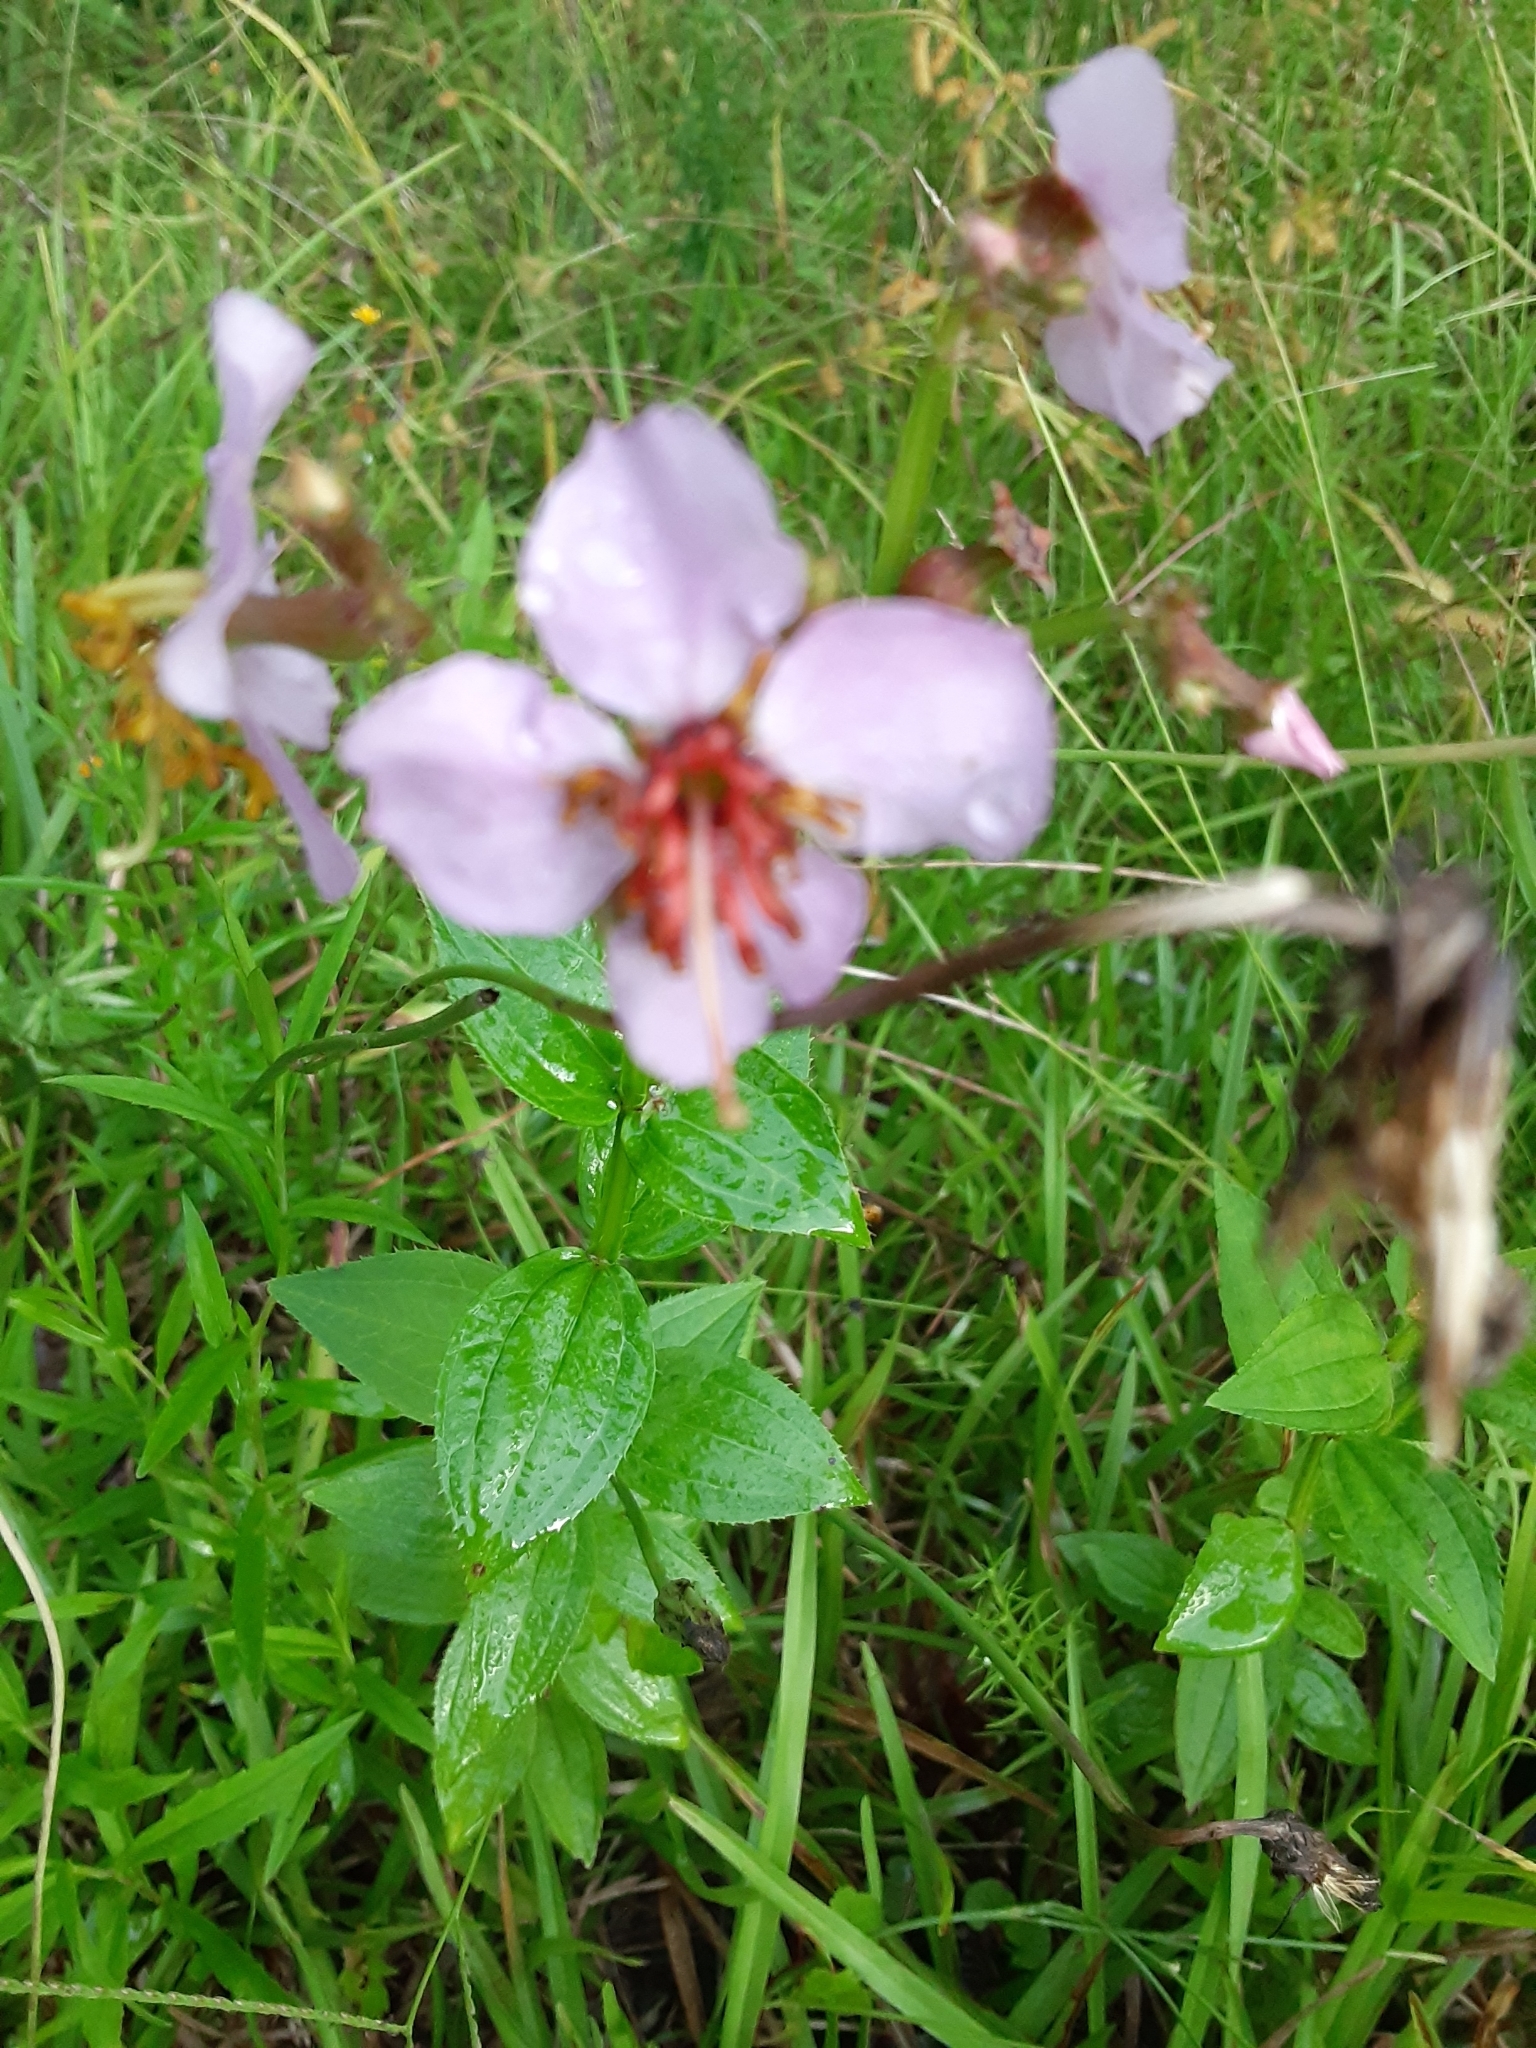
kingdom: Plantae
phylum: Tracheophyta
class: Magnoliopsida
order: Myrtales
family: Melastomataceae
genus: Rhexia
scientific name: Rhexia virginica
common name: Common meadow beauty
